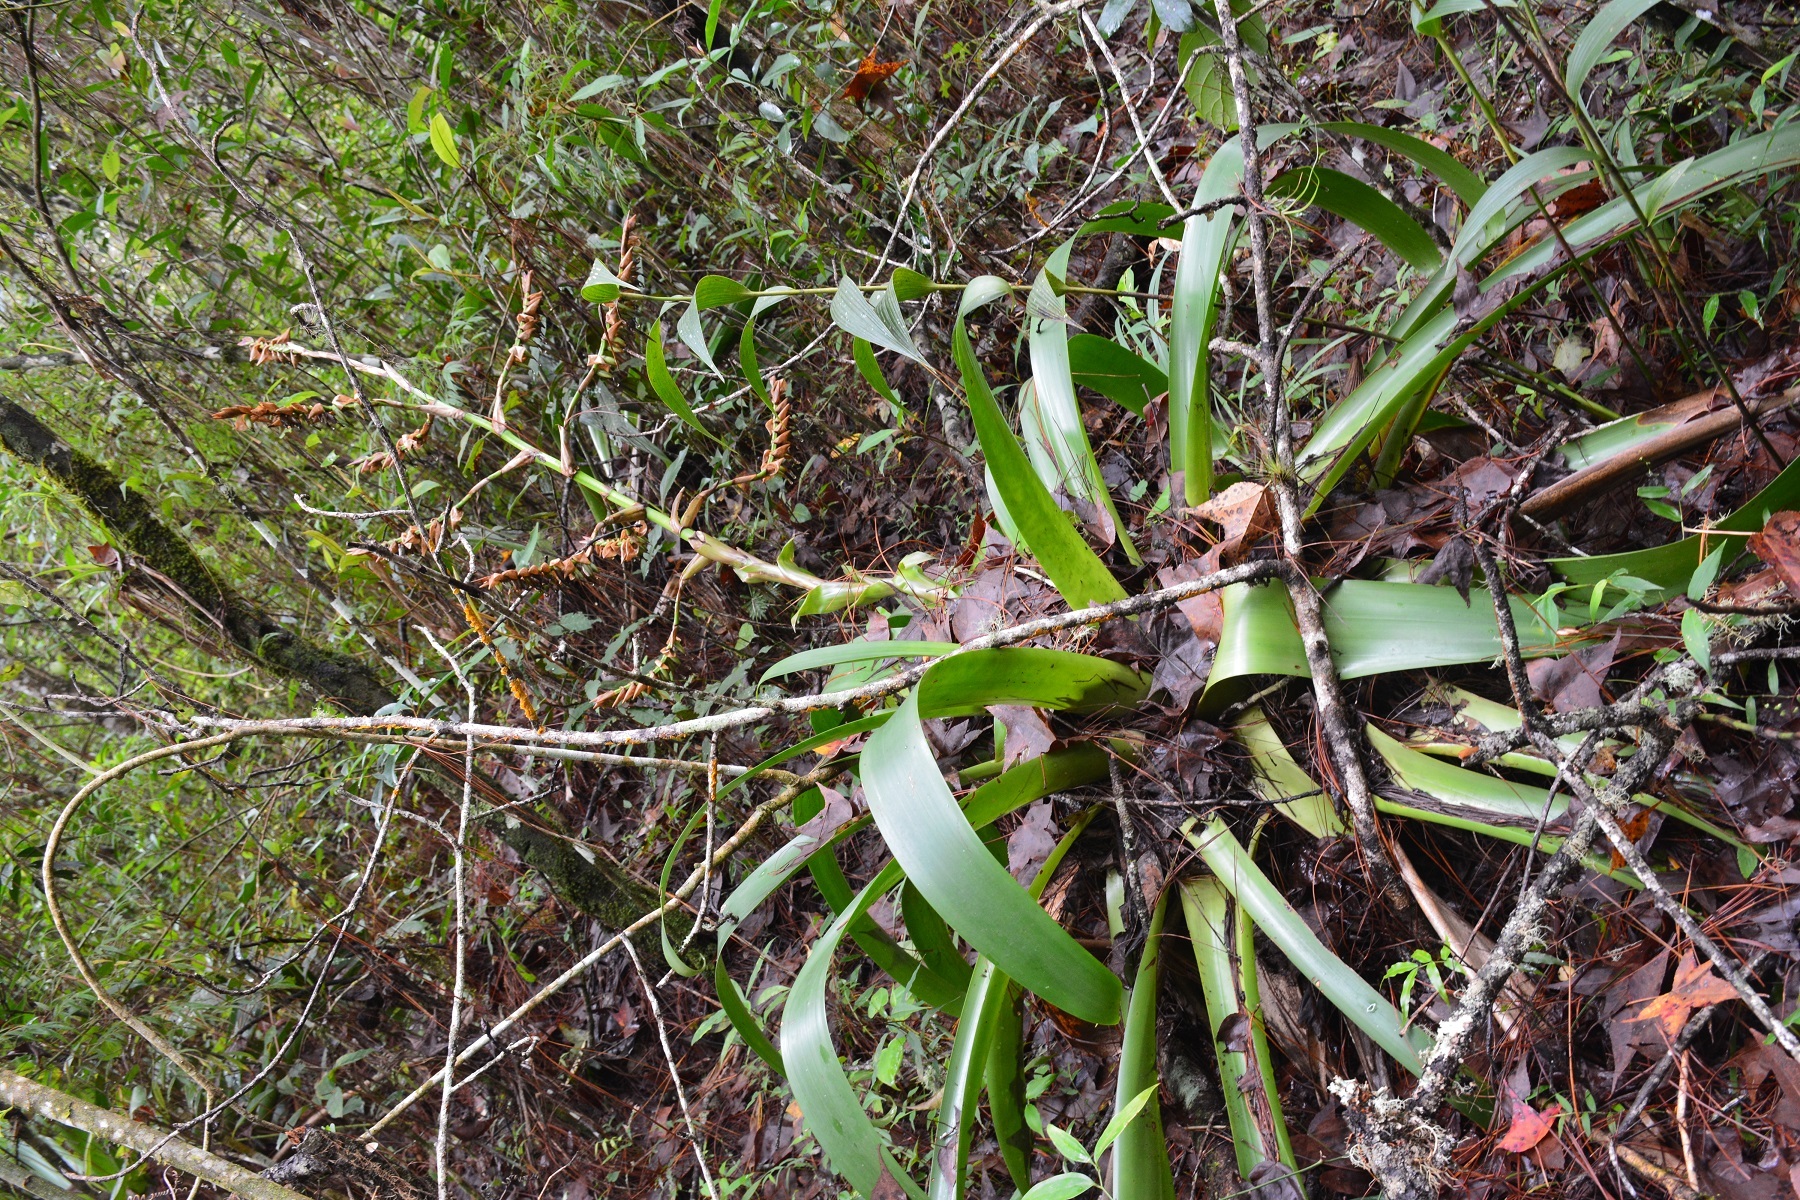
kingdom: Plantae
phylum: Tracheophyta
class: Liliopsida
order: Poales
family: Bromeliaceae
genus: Werauhia
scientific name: Werauhia werckleana
